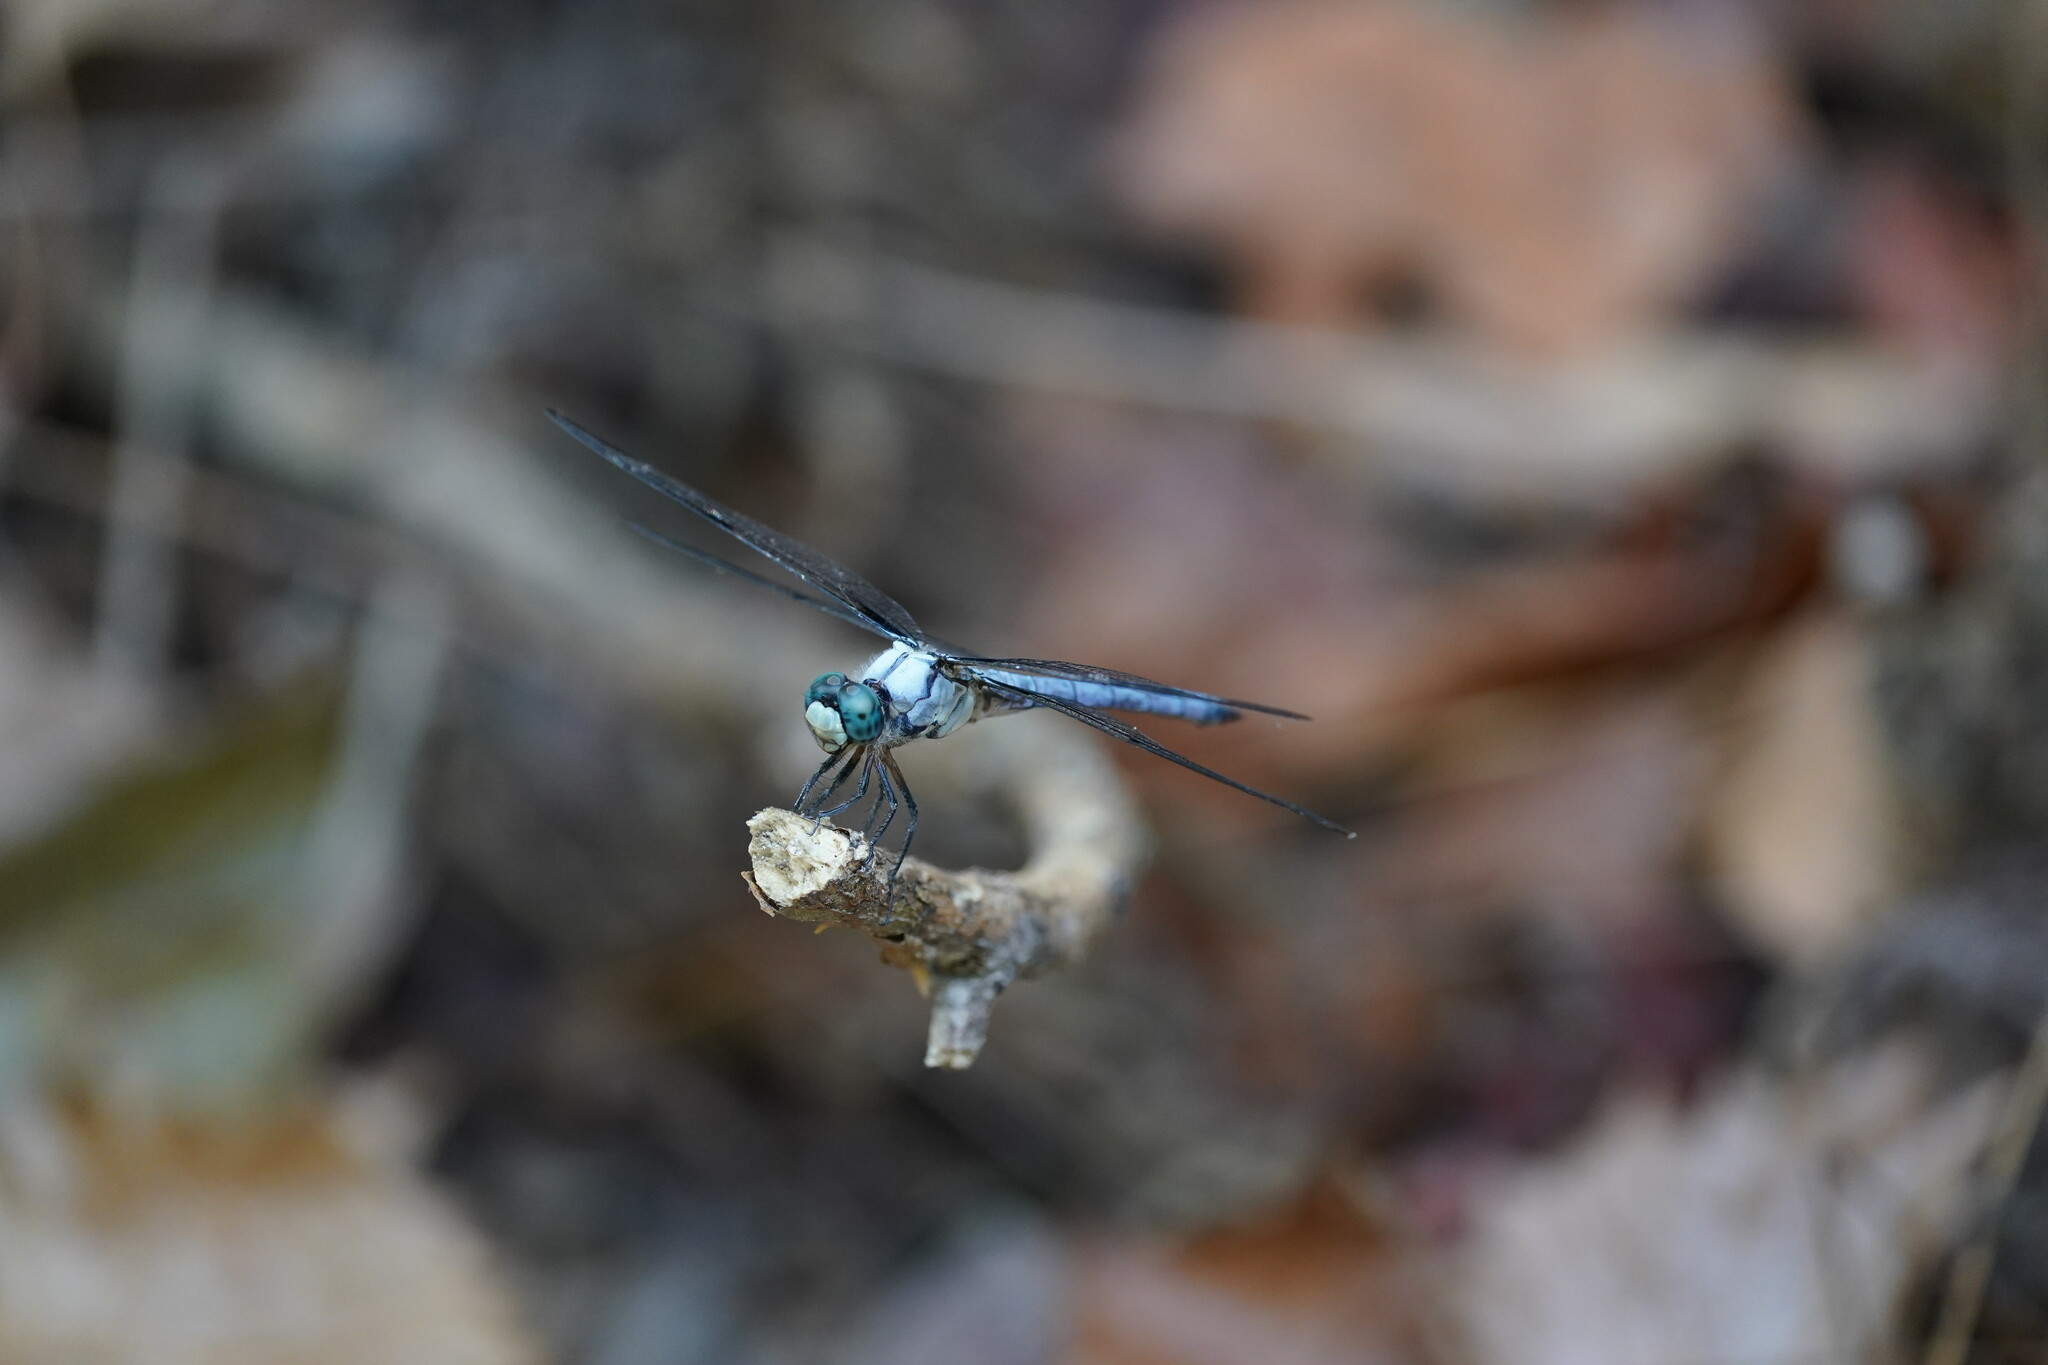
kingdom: Animalia
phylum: Arthropoda
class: Insecta
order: Odonata
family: Libellulidae
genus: Libellula
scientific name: Libellula vibrans
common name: Great blue skimmer
